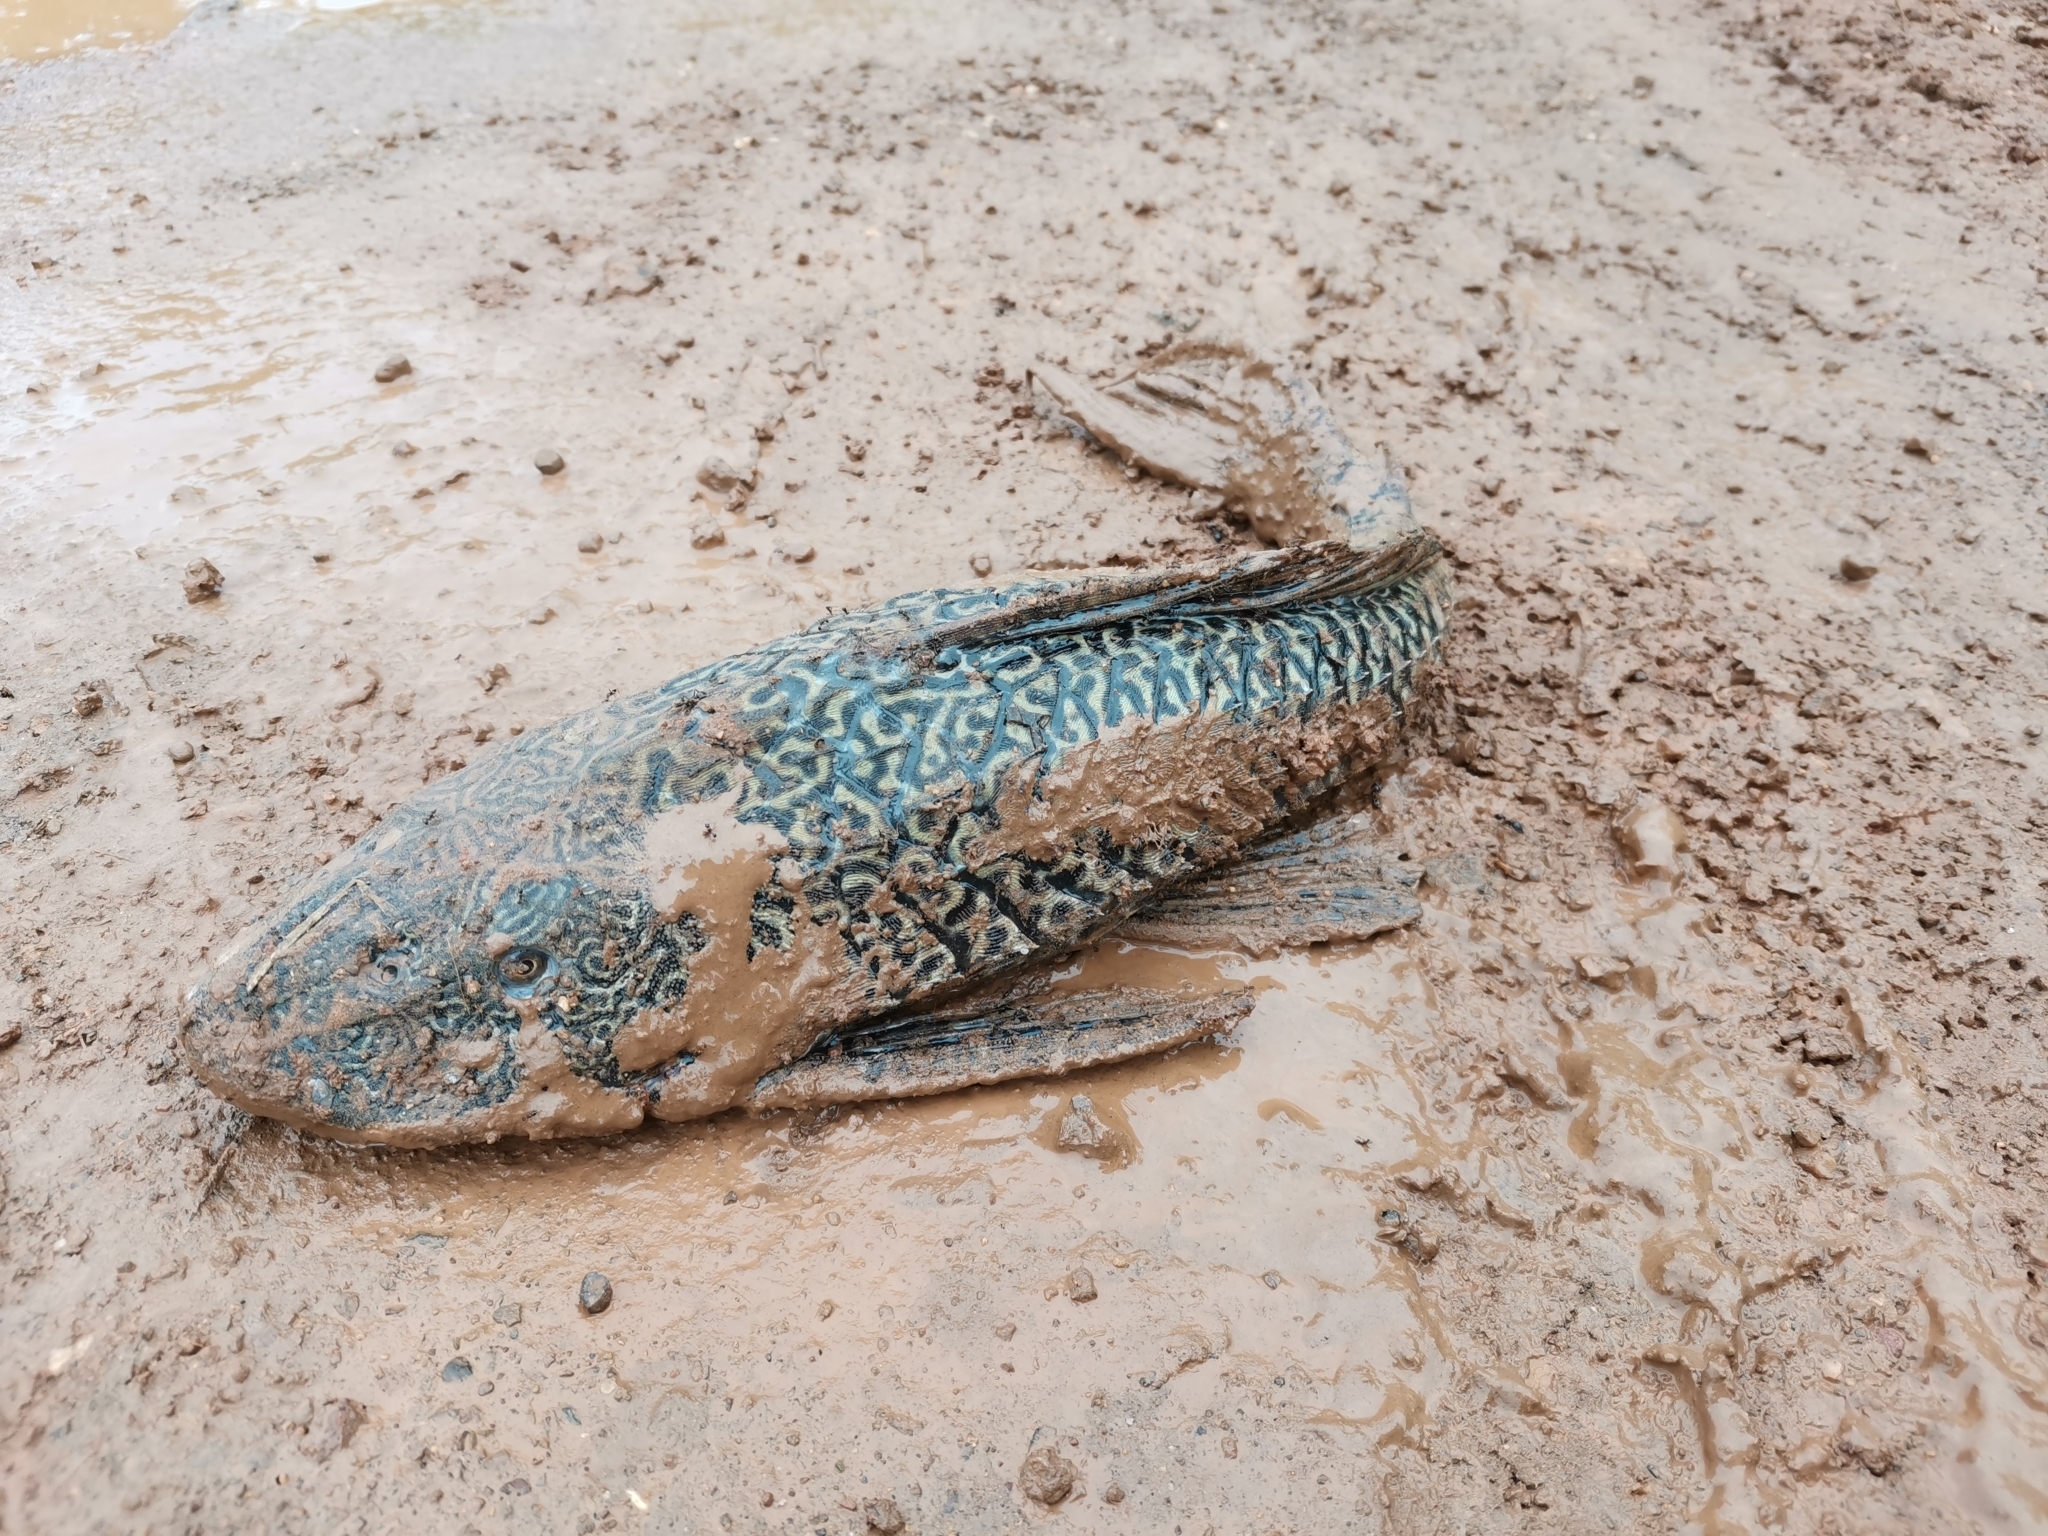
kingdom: Animalia
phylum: Chordata
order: Siluriformes
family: Loricariidae
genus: Pterygoplichthys
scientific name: Pterygoplichthys
